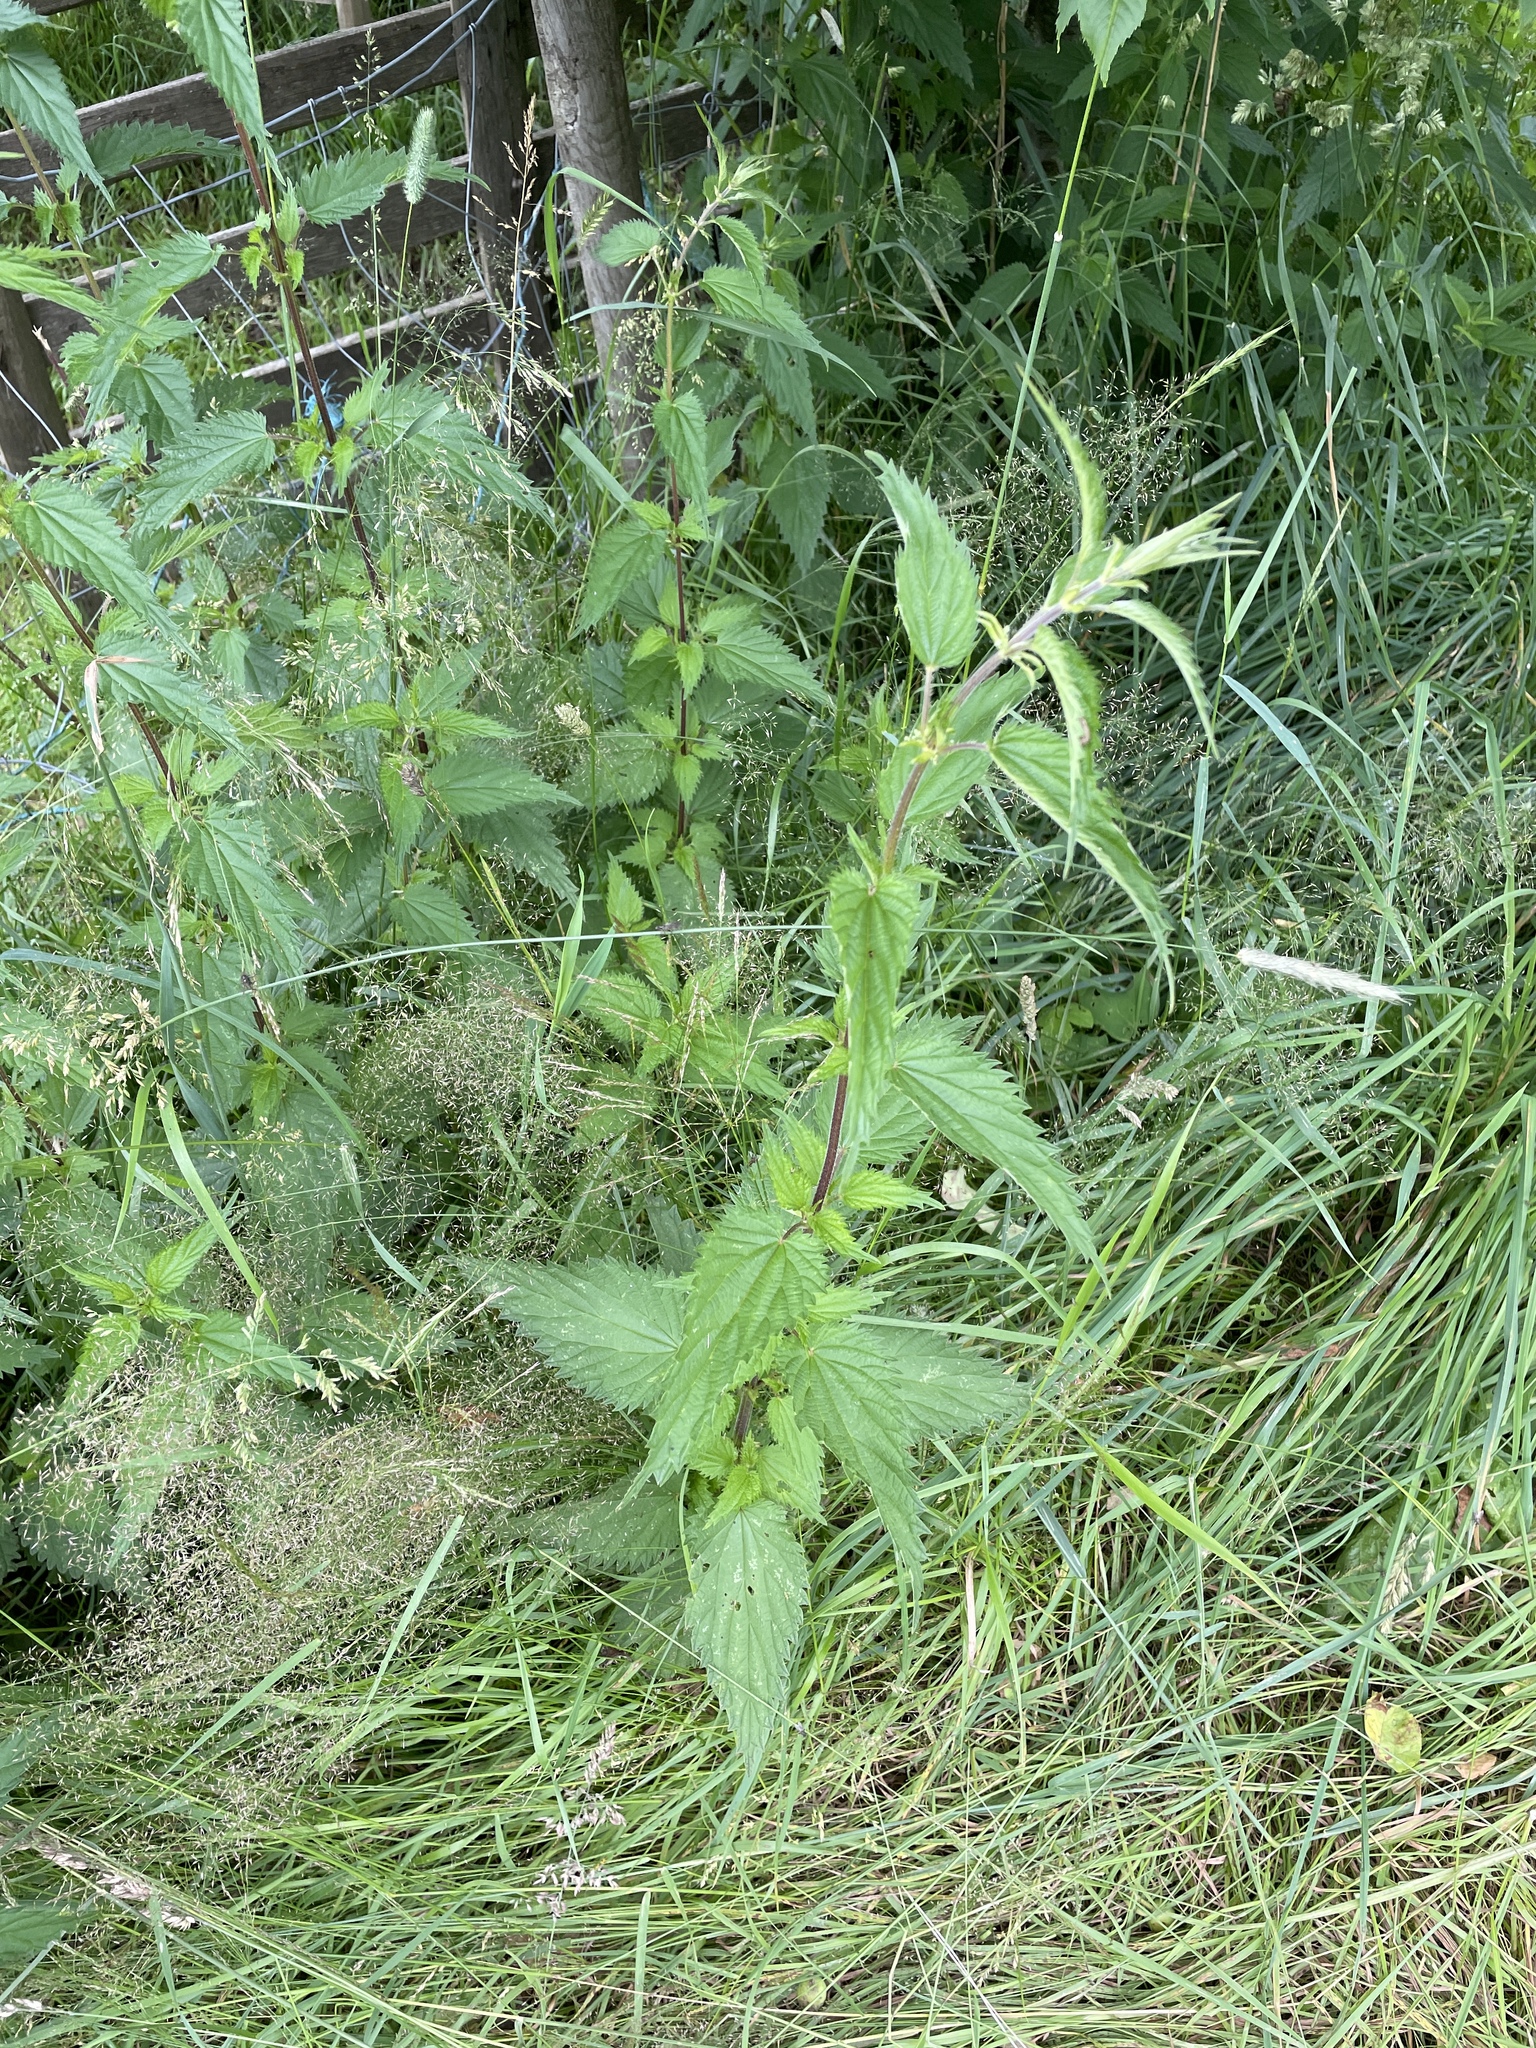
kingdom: Plantae
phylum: Tracheophyta
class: Magnoliopsida
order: Rosales
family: Urticaceae
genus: Urtica
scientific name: Urtica dioica
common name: Common nettle
